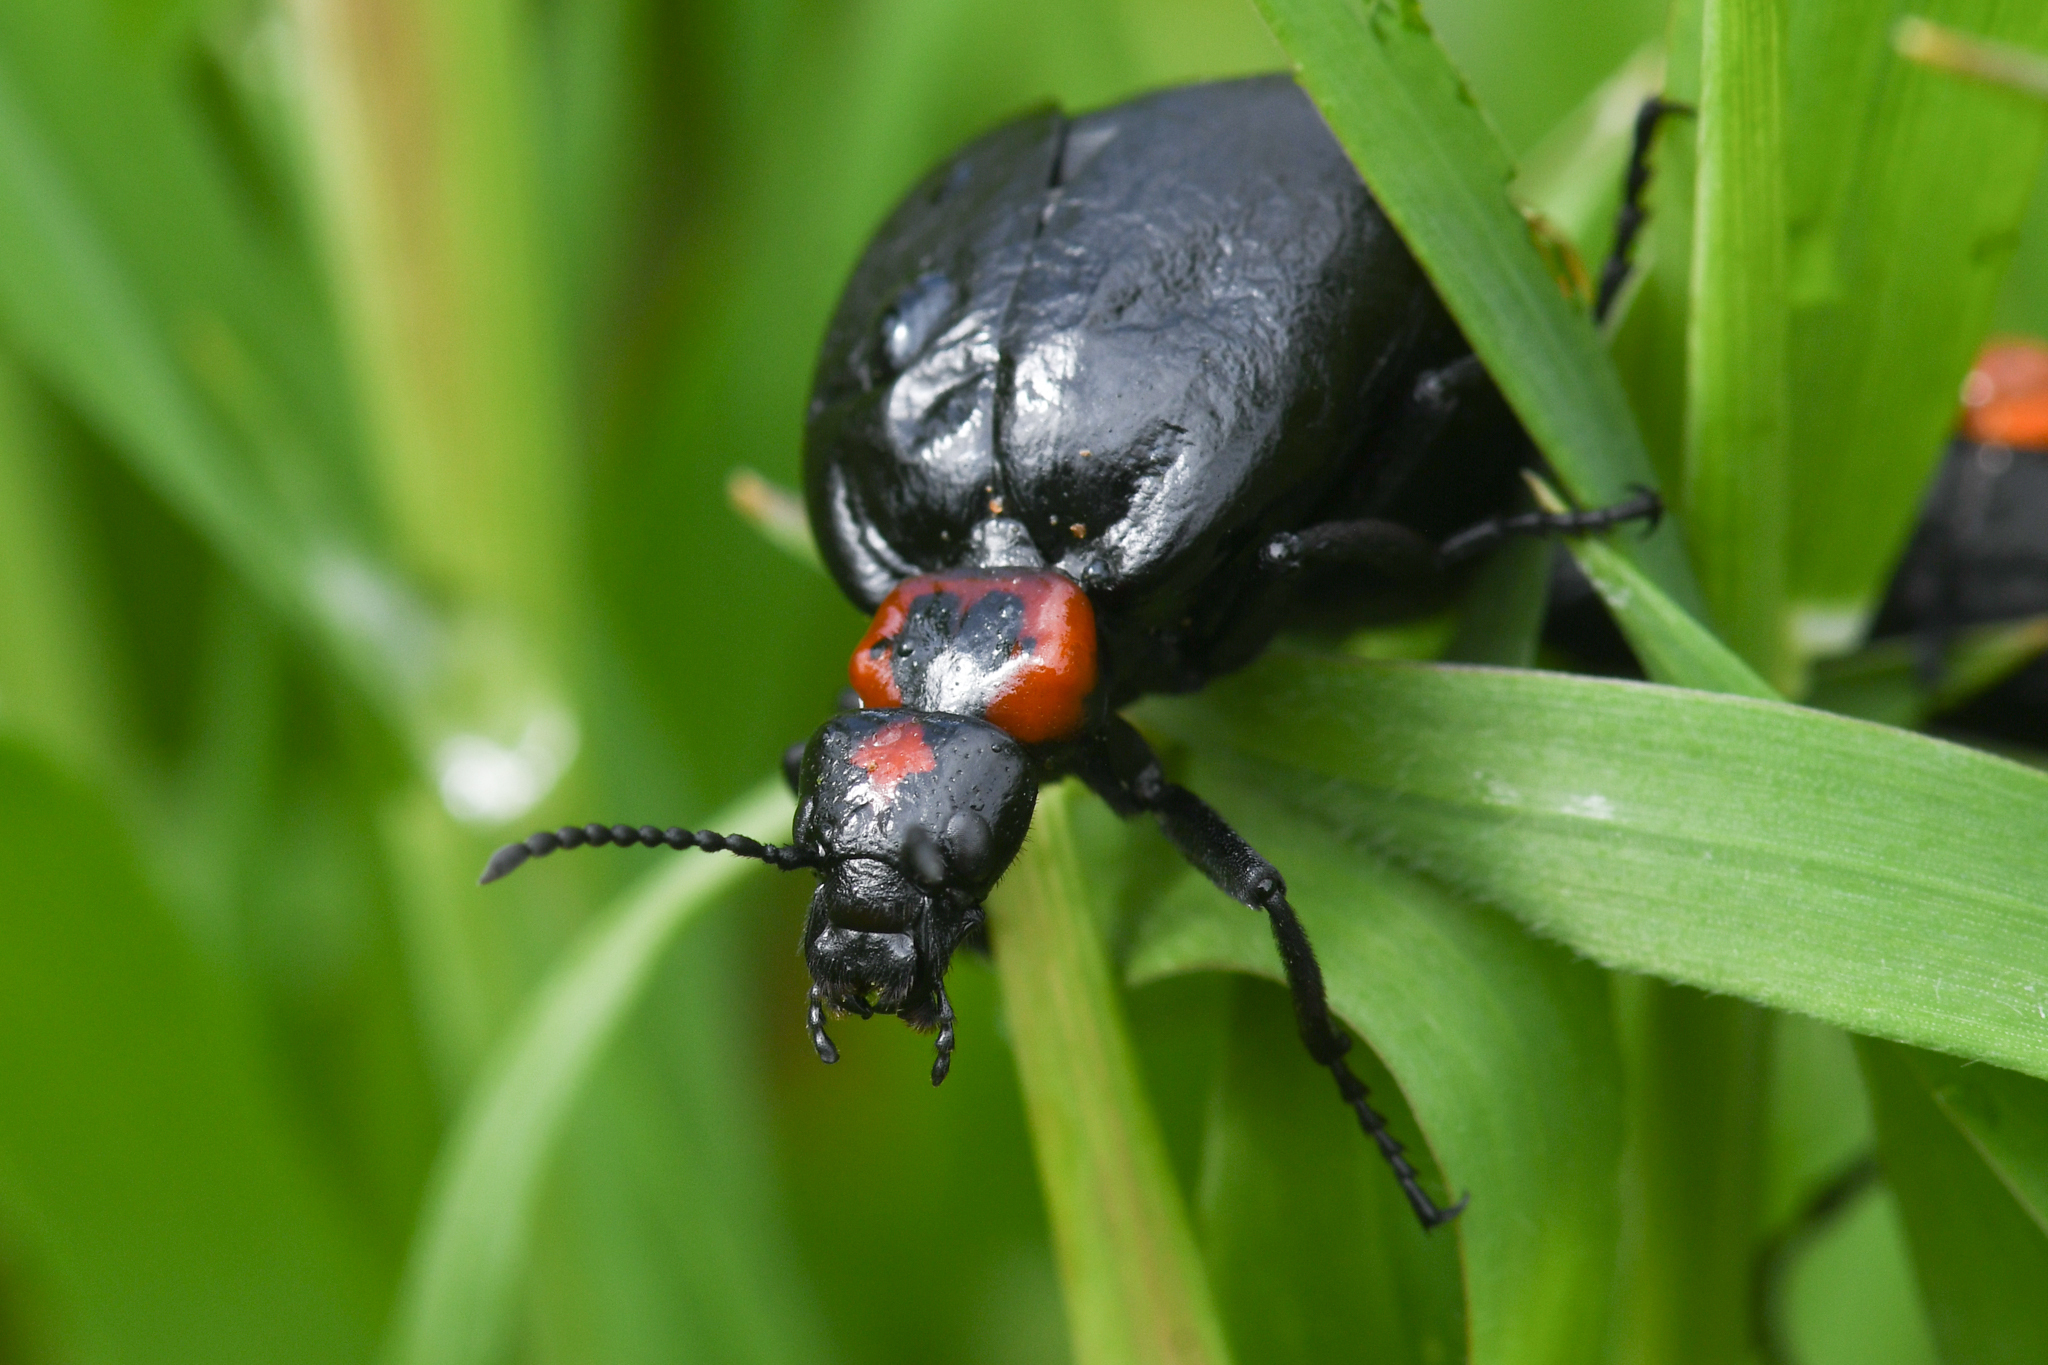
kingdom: Animalia
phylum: Arthropoda
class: Insecta
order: Coleoptera
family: Meloidae
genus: Lytta
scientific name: Lytta sublaevis
